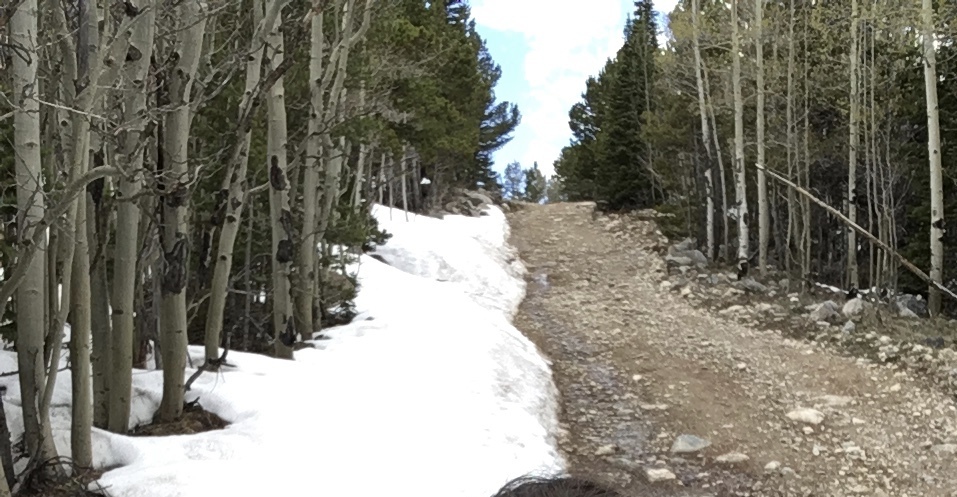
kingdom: Plantae
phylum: Tracheophyta
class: Magnoliopsida
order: Malpighiales
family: Salicaceae
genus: Populus
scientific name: Populus tremuloides
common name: Quaking aspen
